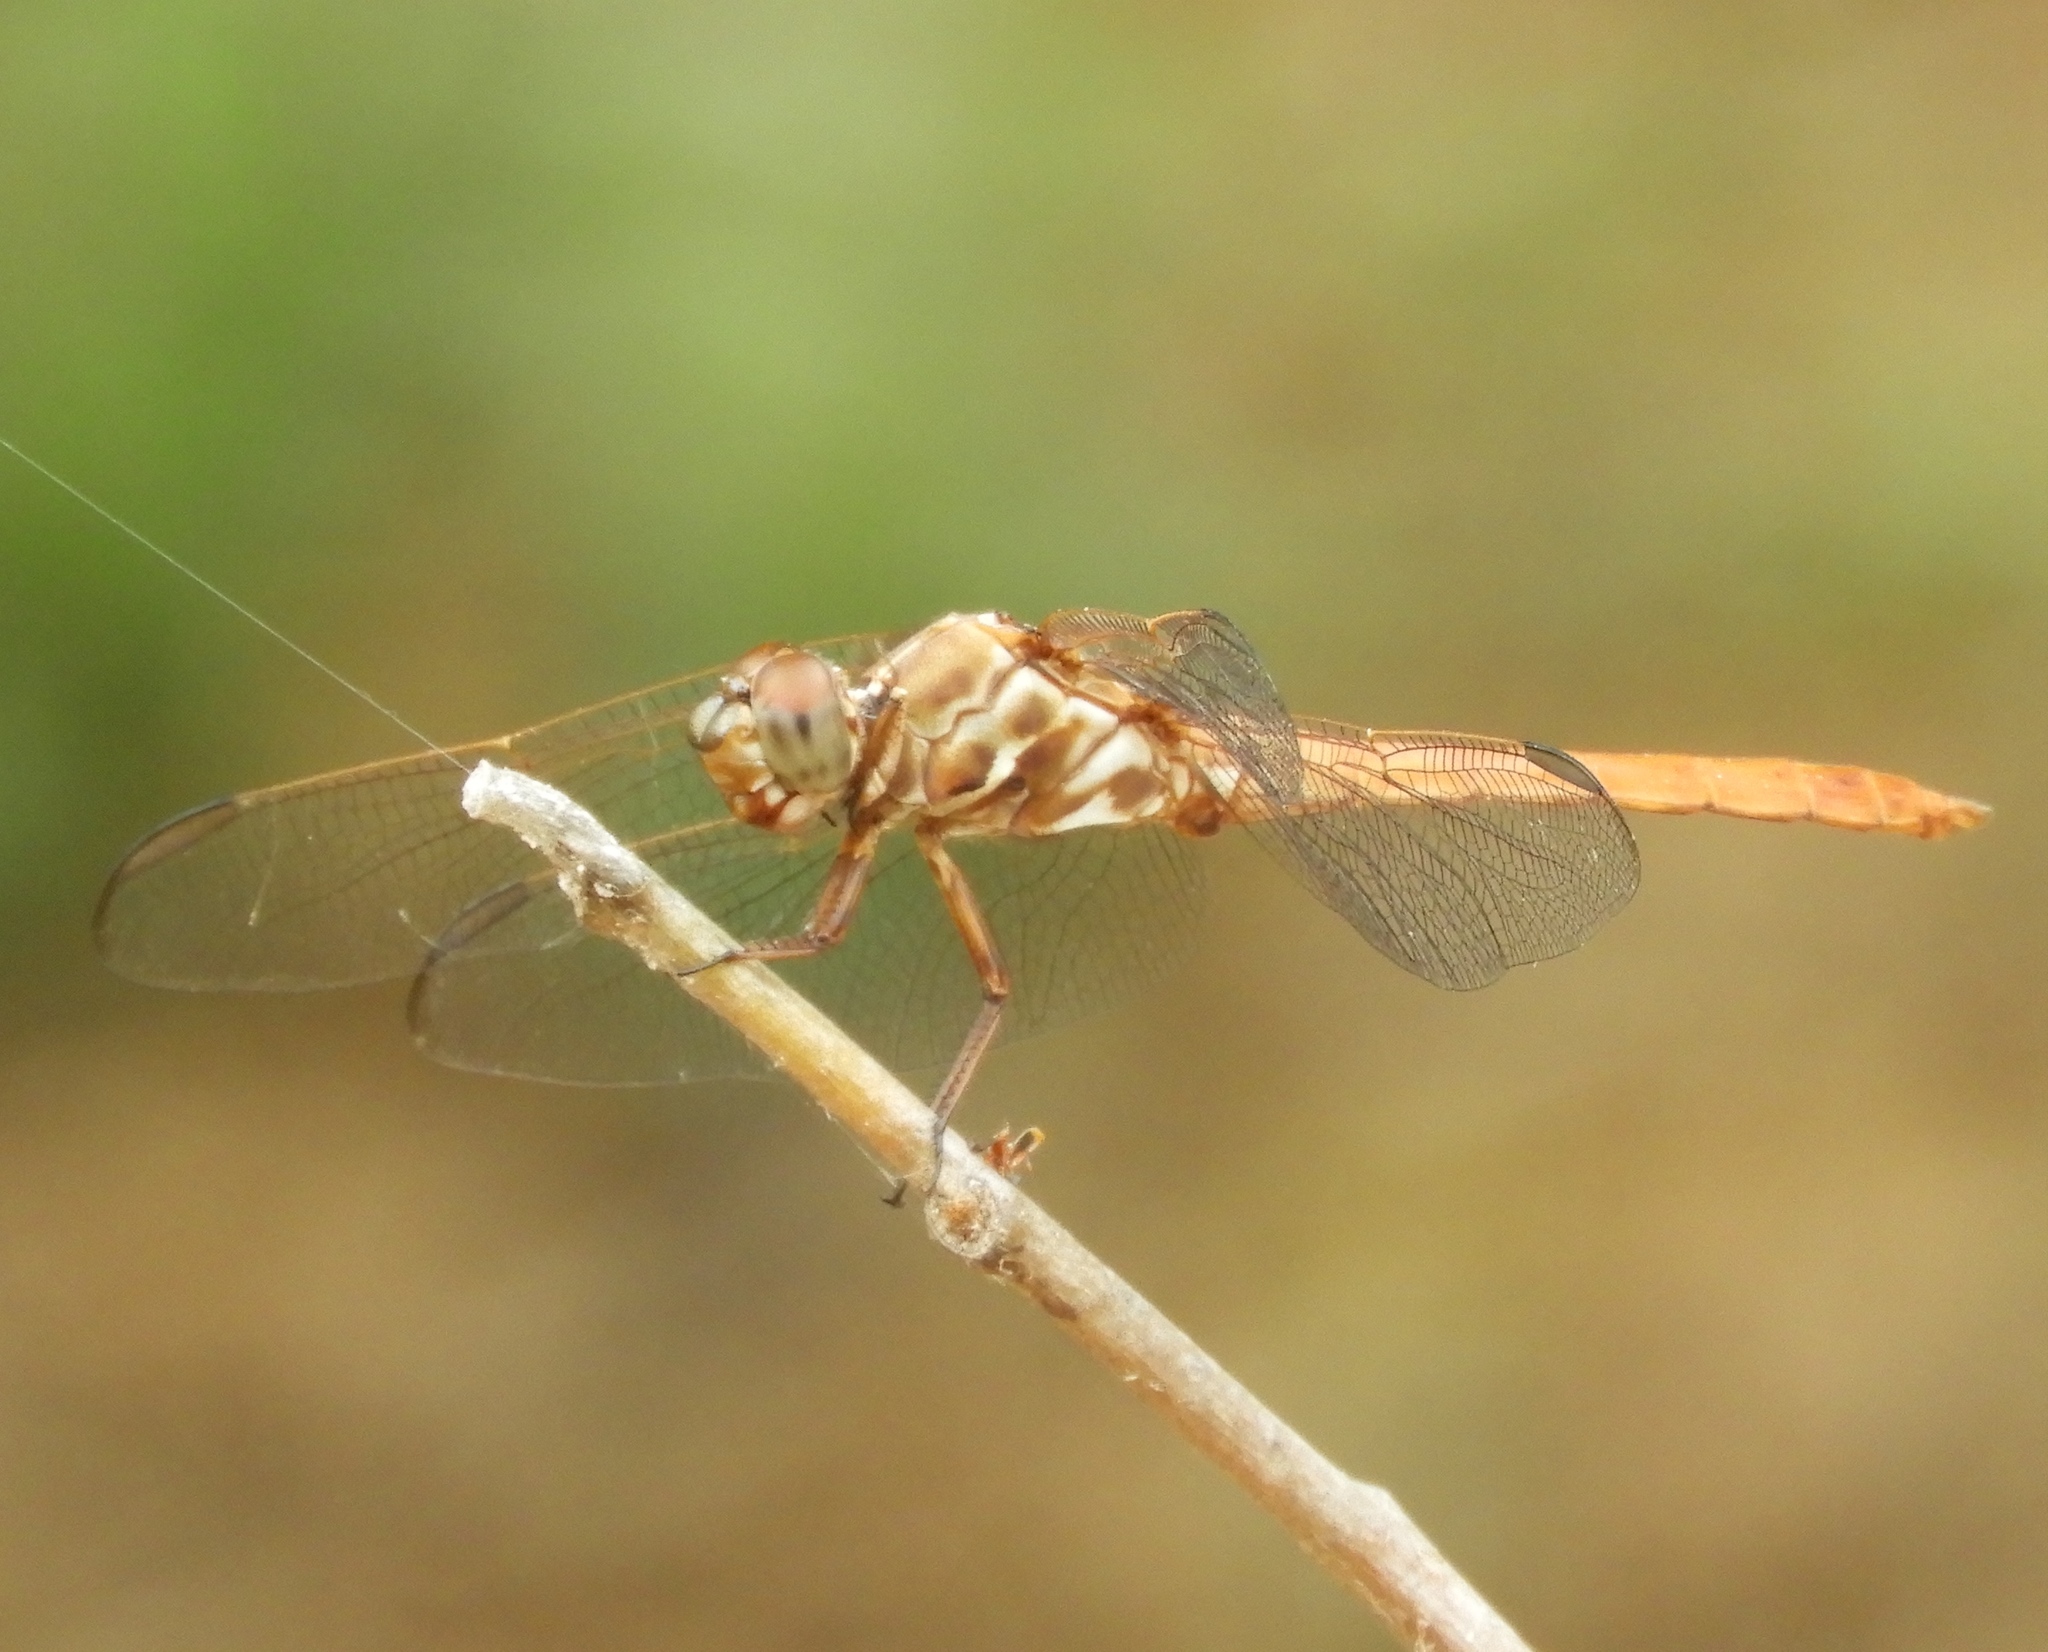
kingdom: Animalia
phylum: Arthropoda
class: Insecta
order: Odonata
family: Libellulidae
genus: Orthemis
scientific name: Orthemis ferruginea
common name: Roseate skimmer
